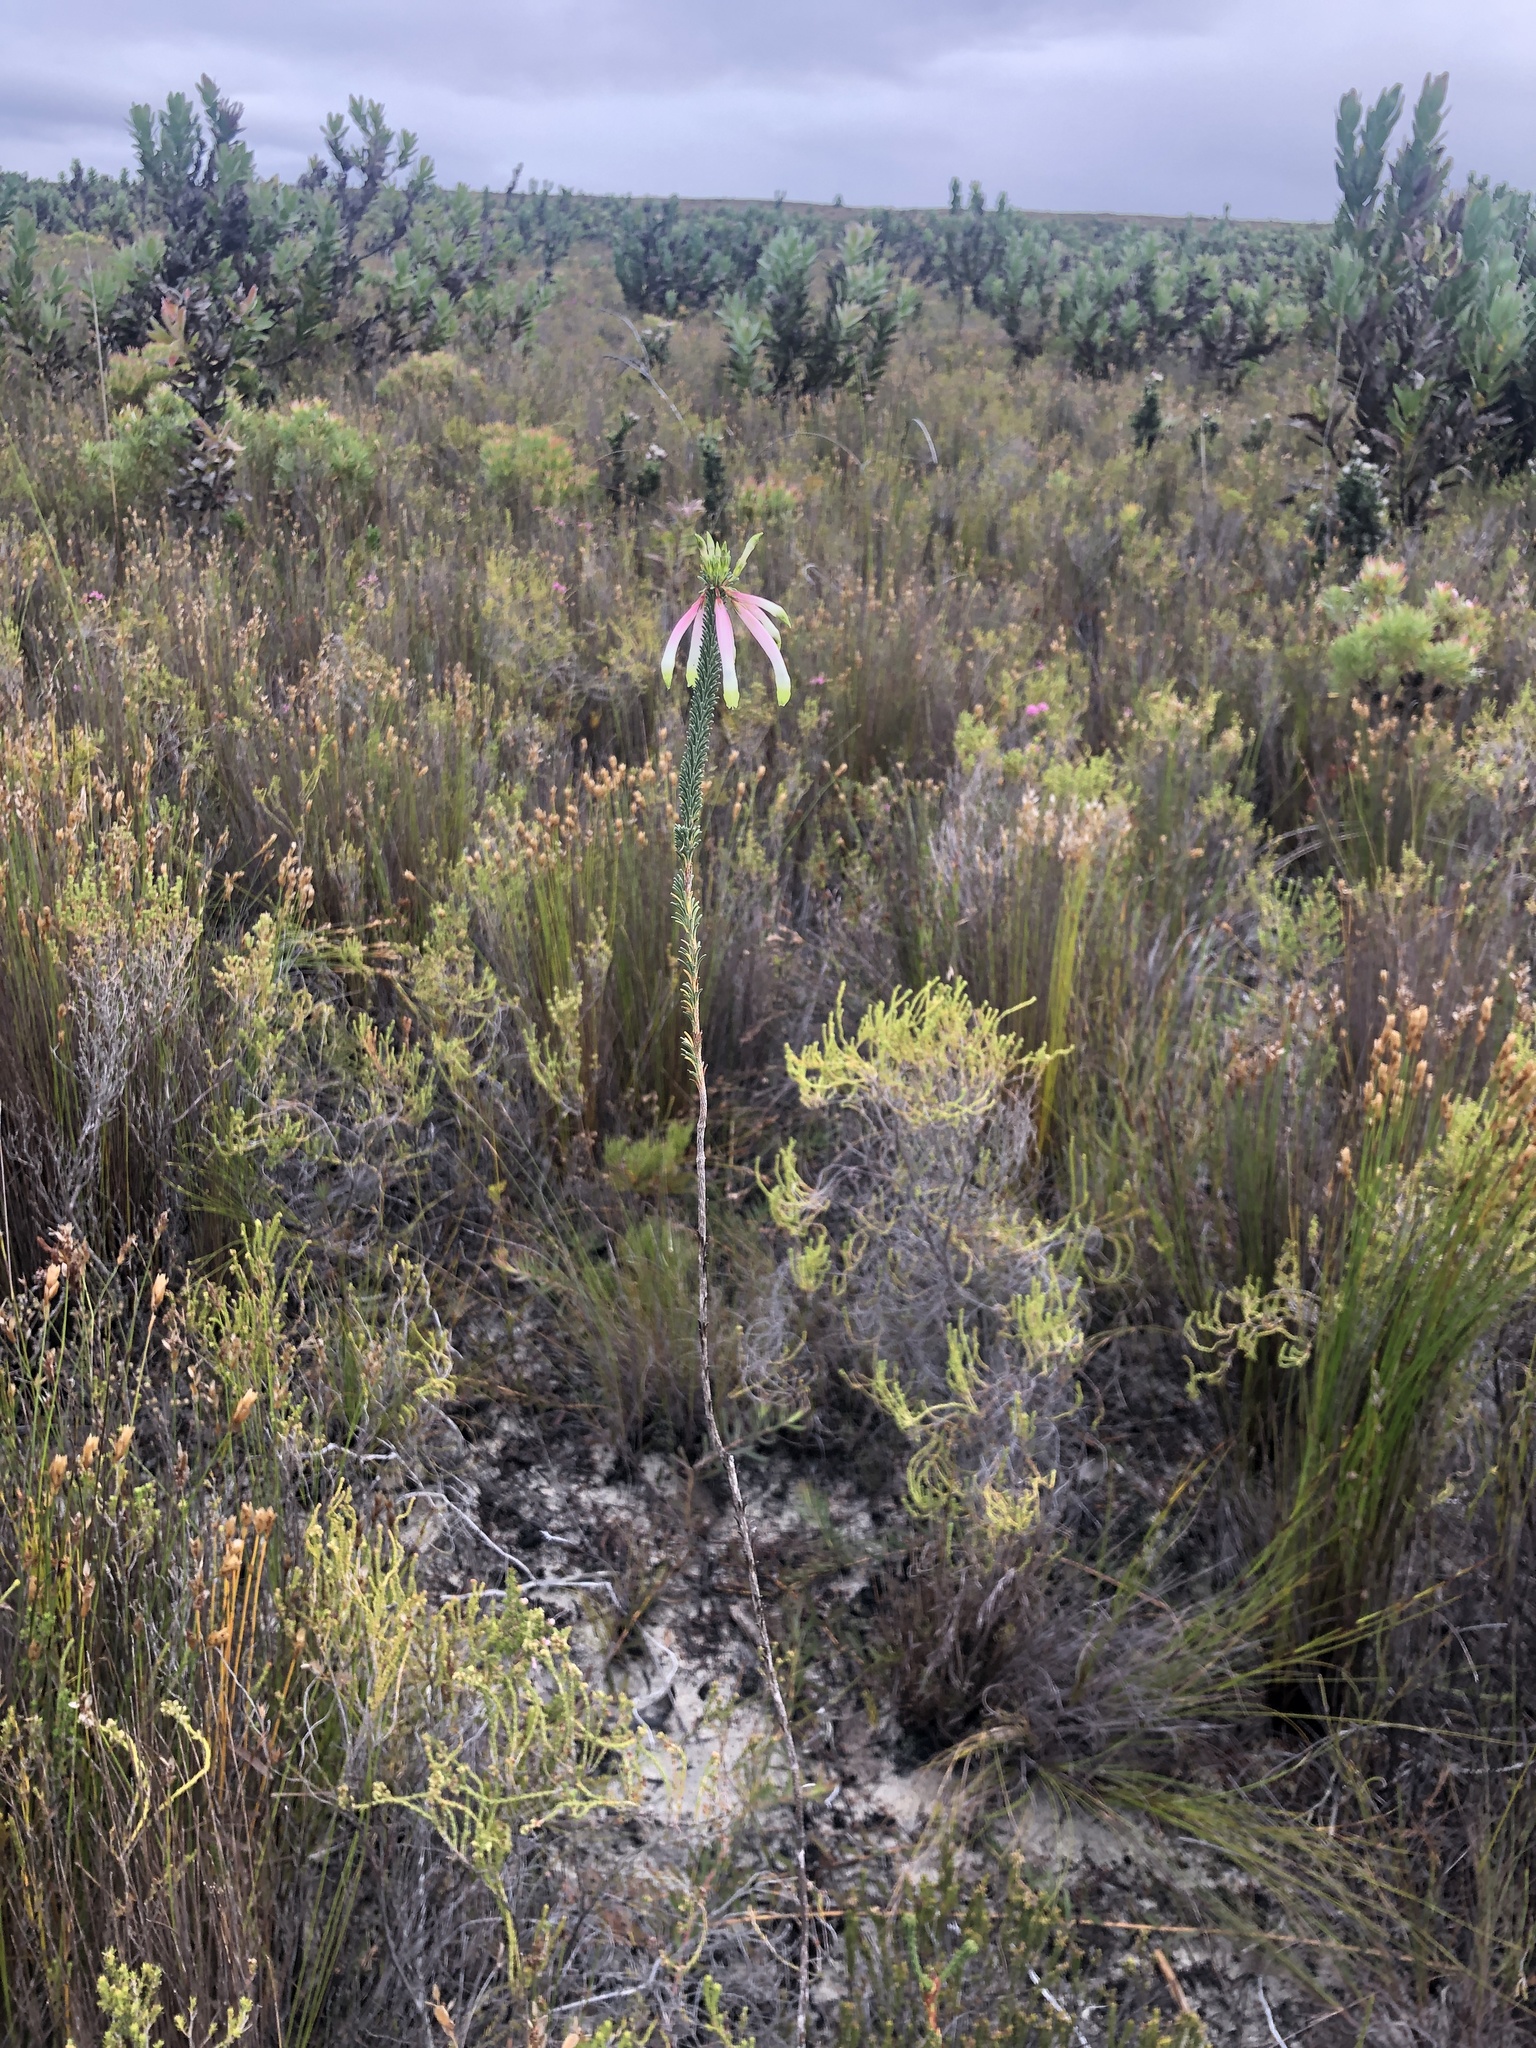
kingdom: Plantae
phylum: Tracheophyta
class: Magnoliopsida
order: Ericales
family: Ericaceae
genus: Erica
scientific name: Erica fascicularis
